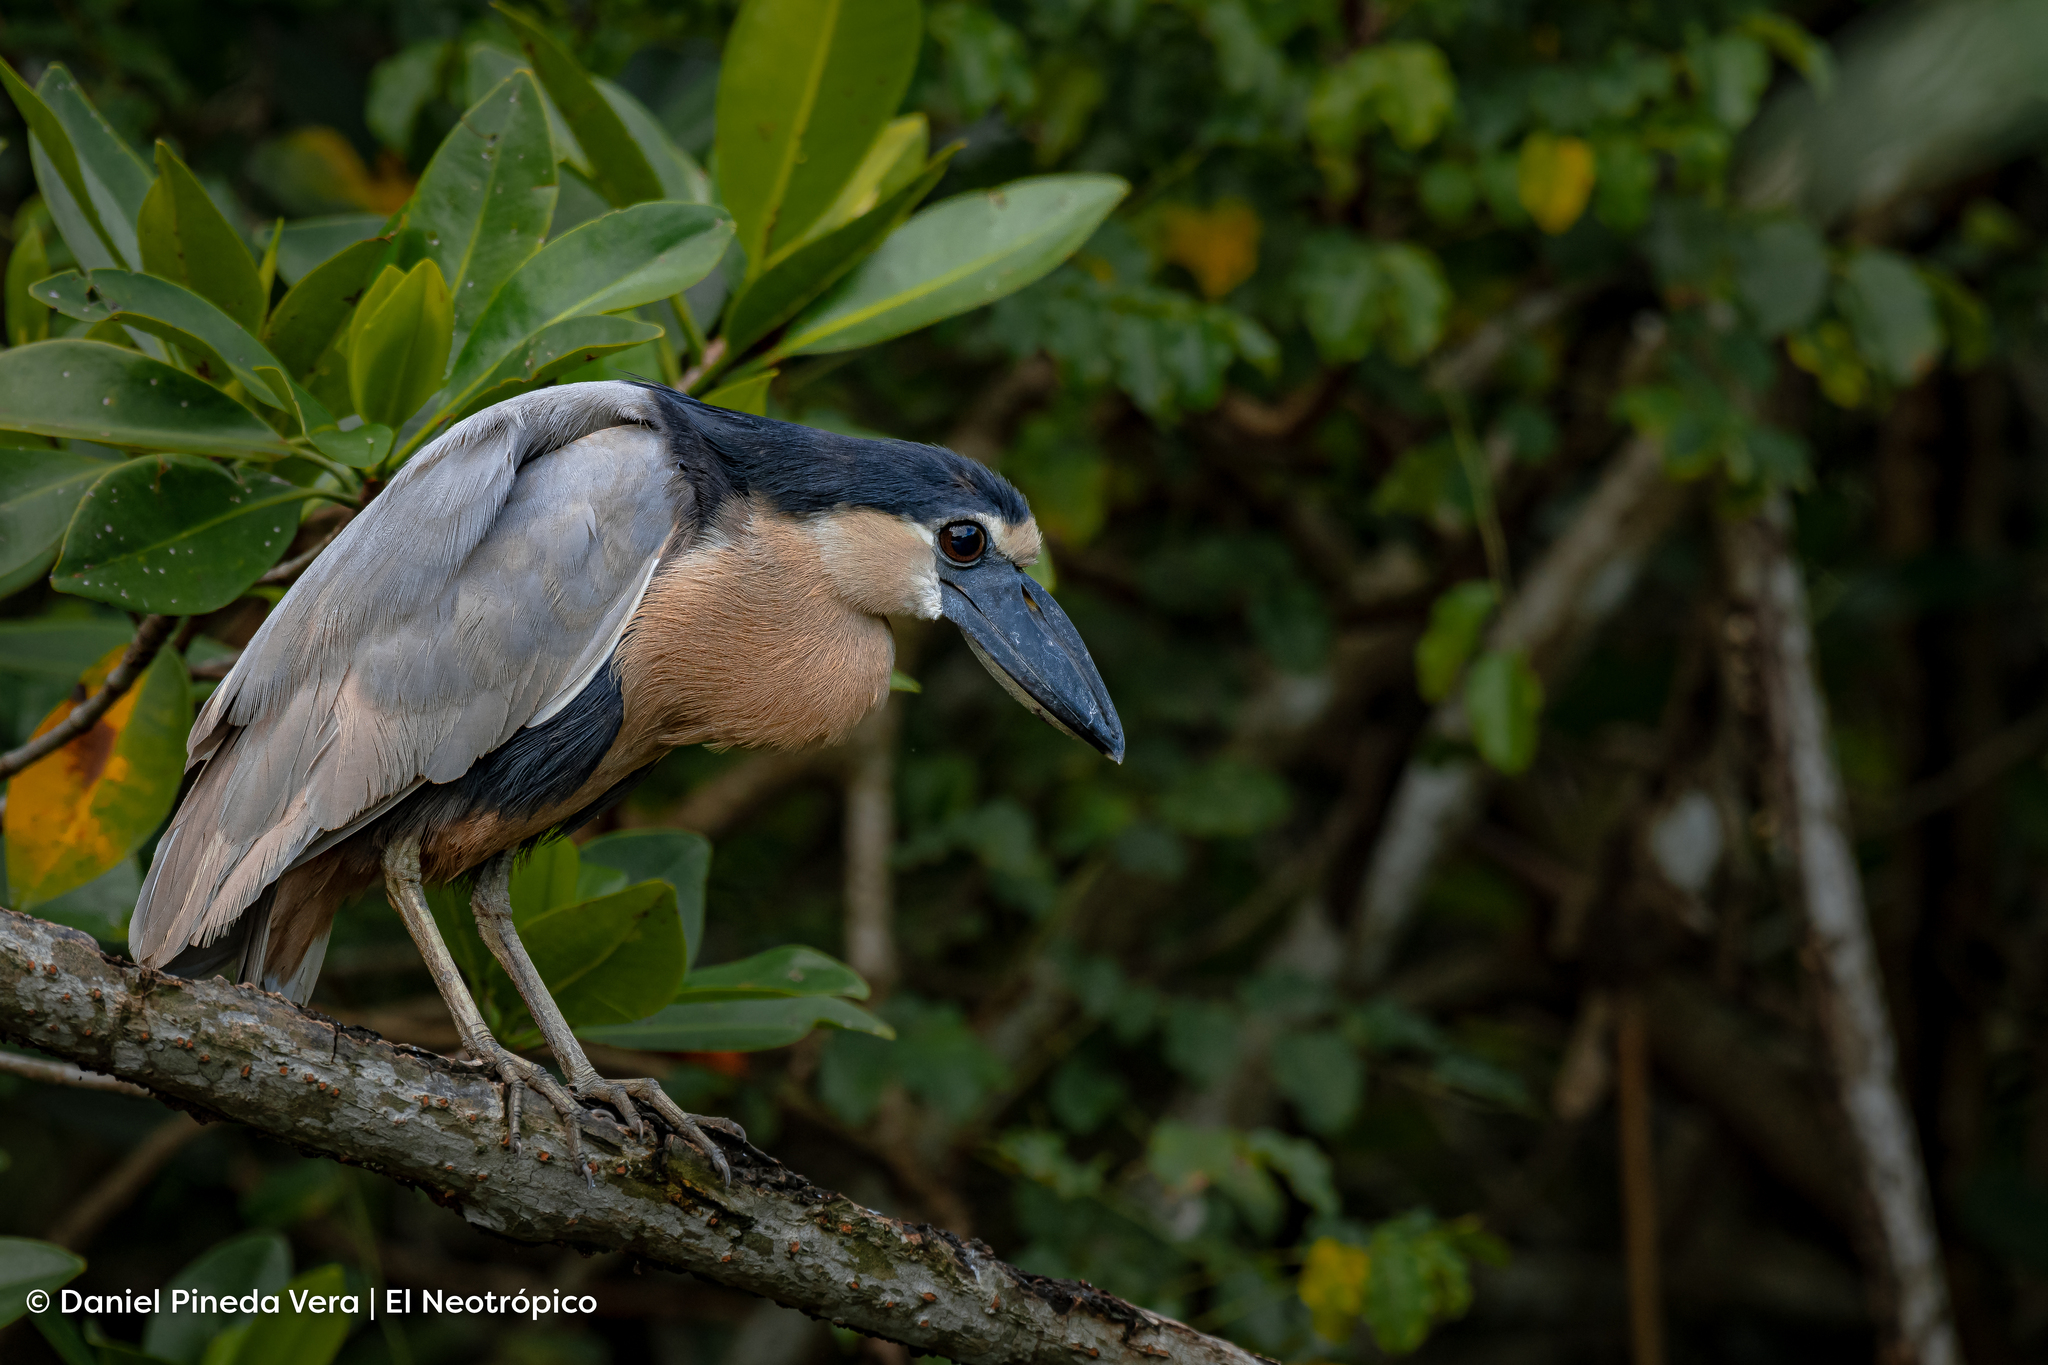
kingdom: Animalia
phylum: Chordata
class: Aves
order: Pelecaniformes
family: Ardeidae
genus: Cochlearius
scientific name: Cochlearius cochlearius
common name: Boat-billed heron
